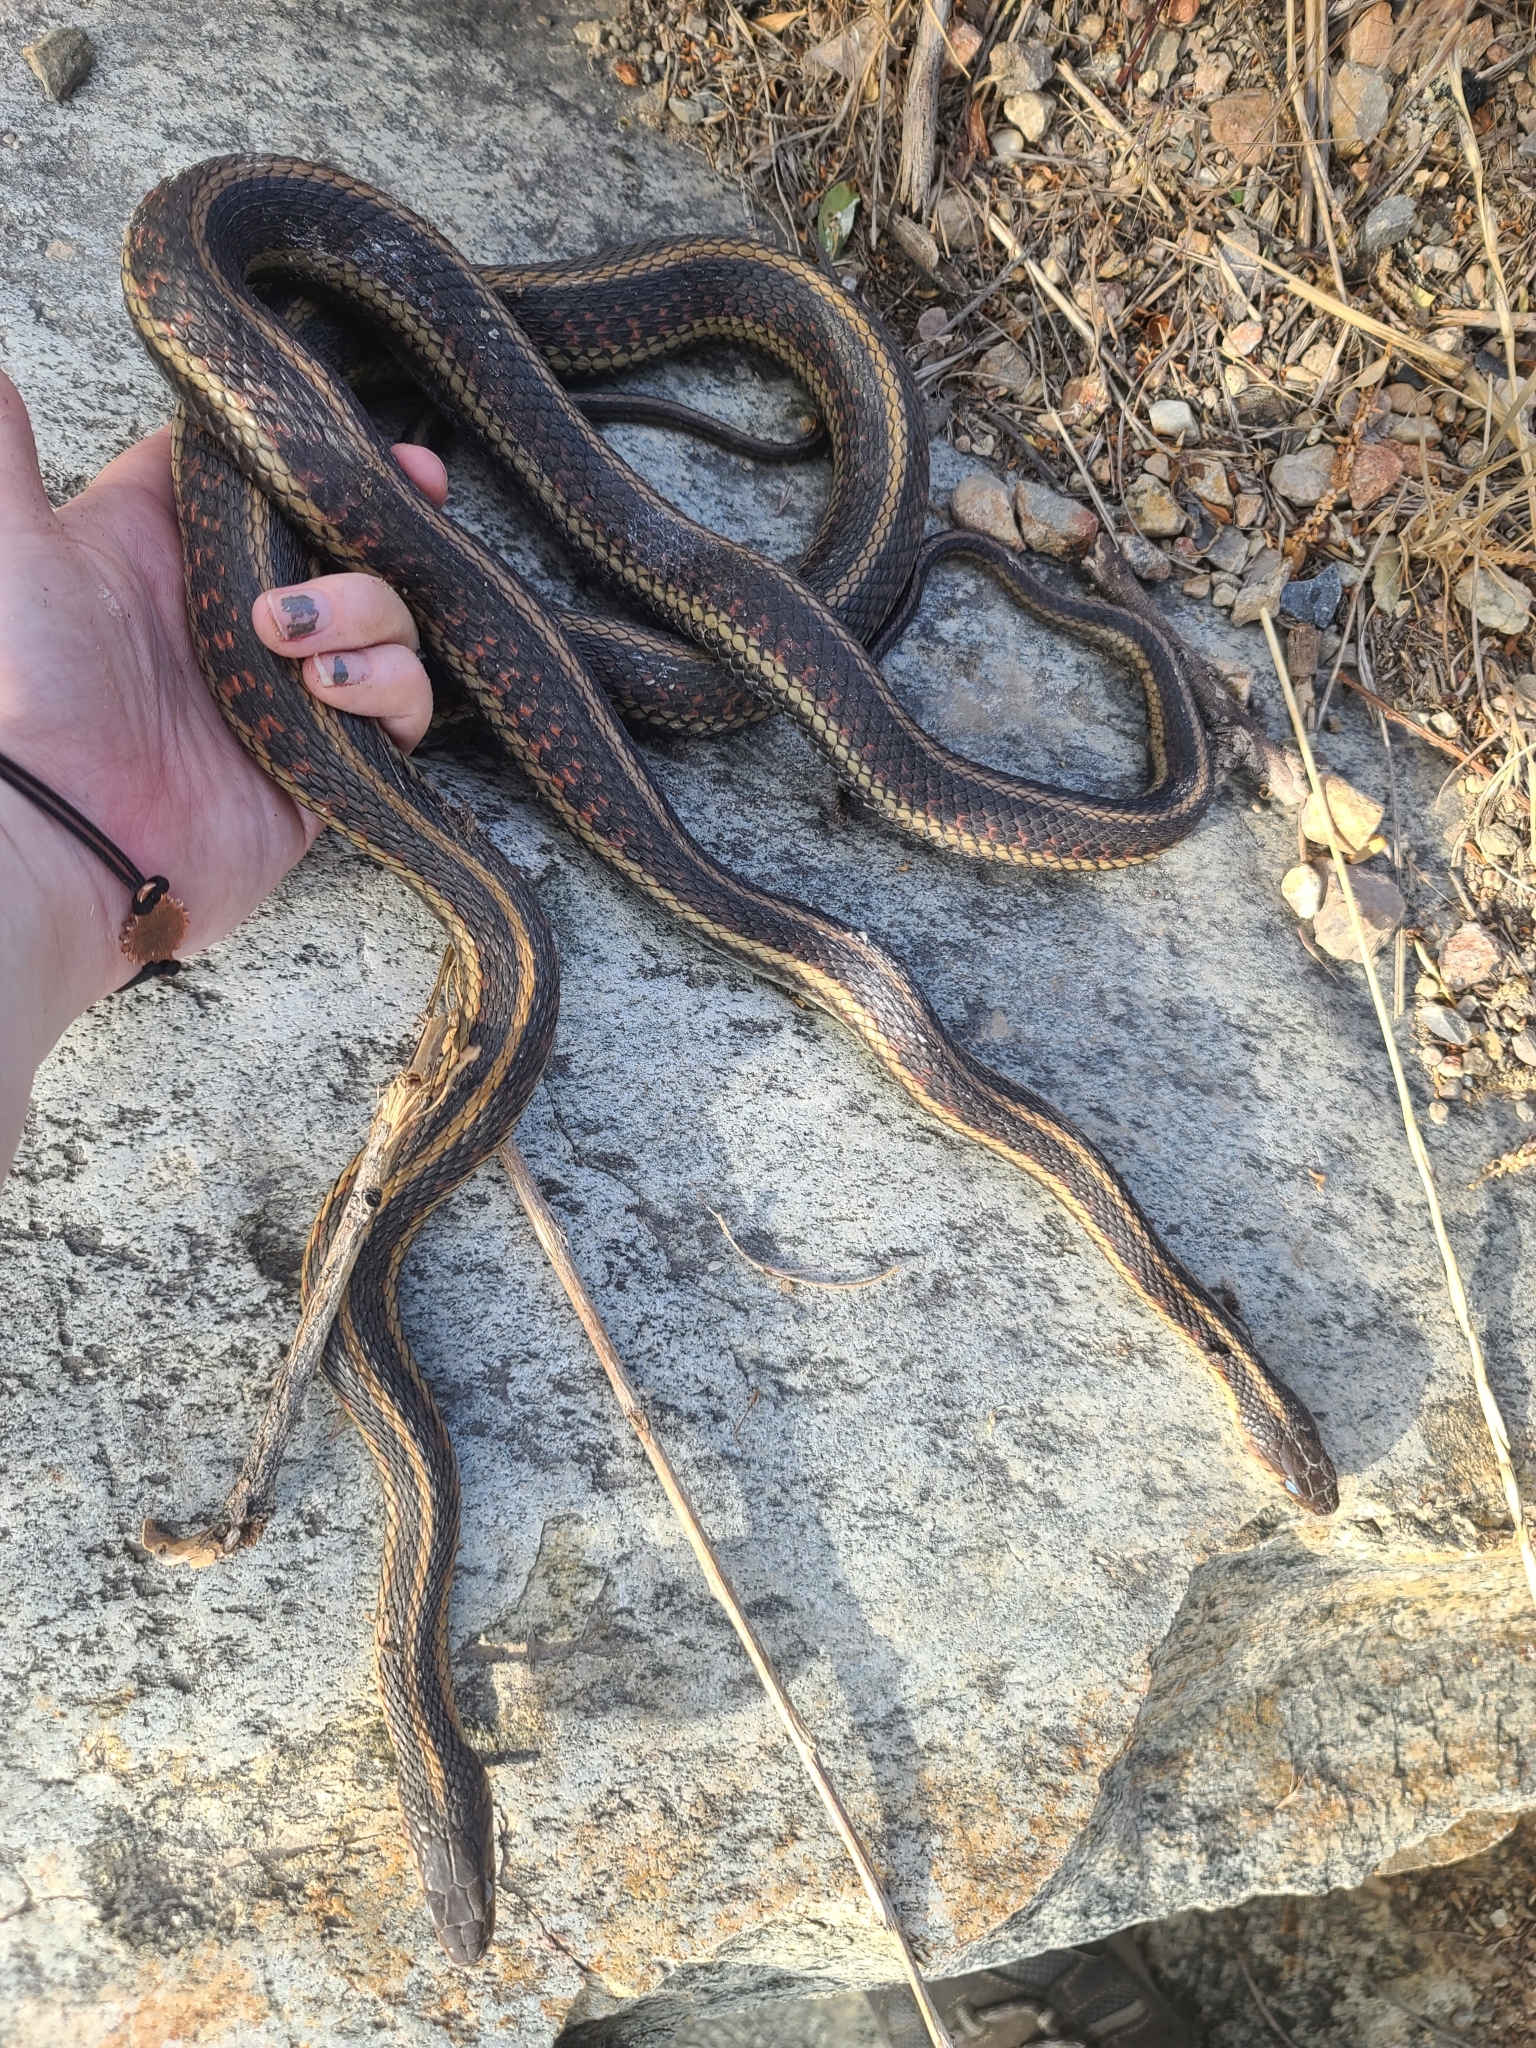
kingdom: Animalia
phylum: Chordata
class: Squamata
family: Colubridae
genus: Thamnophis
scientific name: Thamnophis sirtalis
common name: Common garter snake
